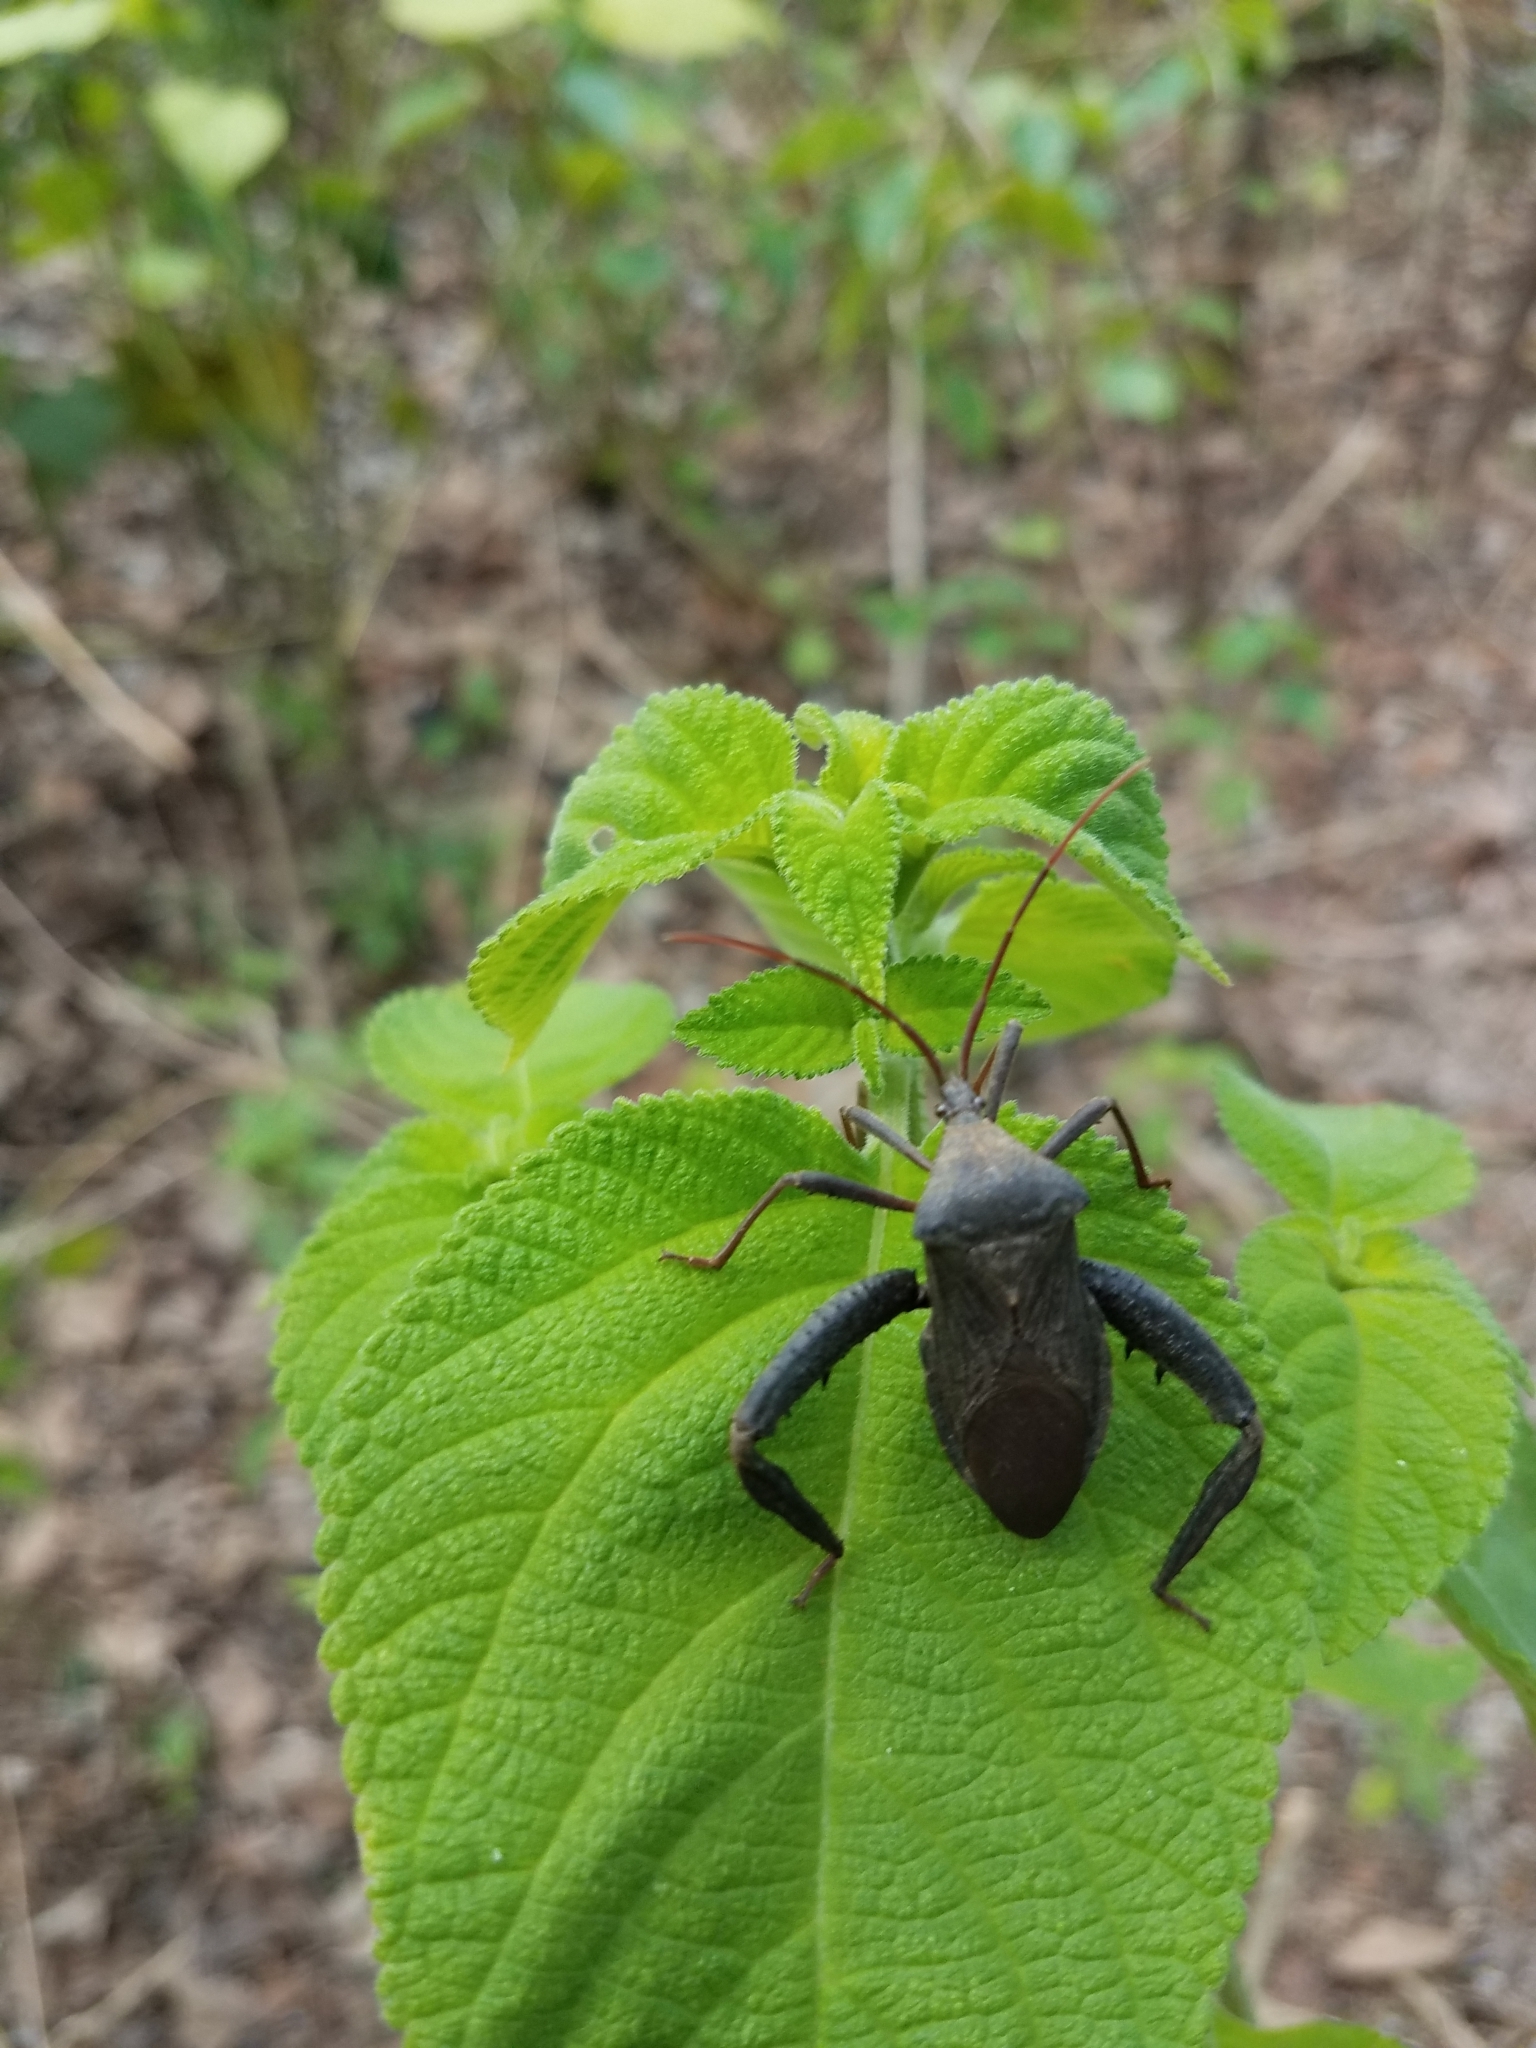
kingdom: Animalia
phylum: Arthropoda
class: Insecta
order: Hemiptera
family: Coreidae
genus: Acanthocephala
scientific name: Acanthocephala femorata
